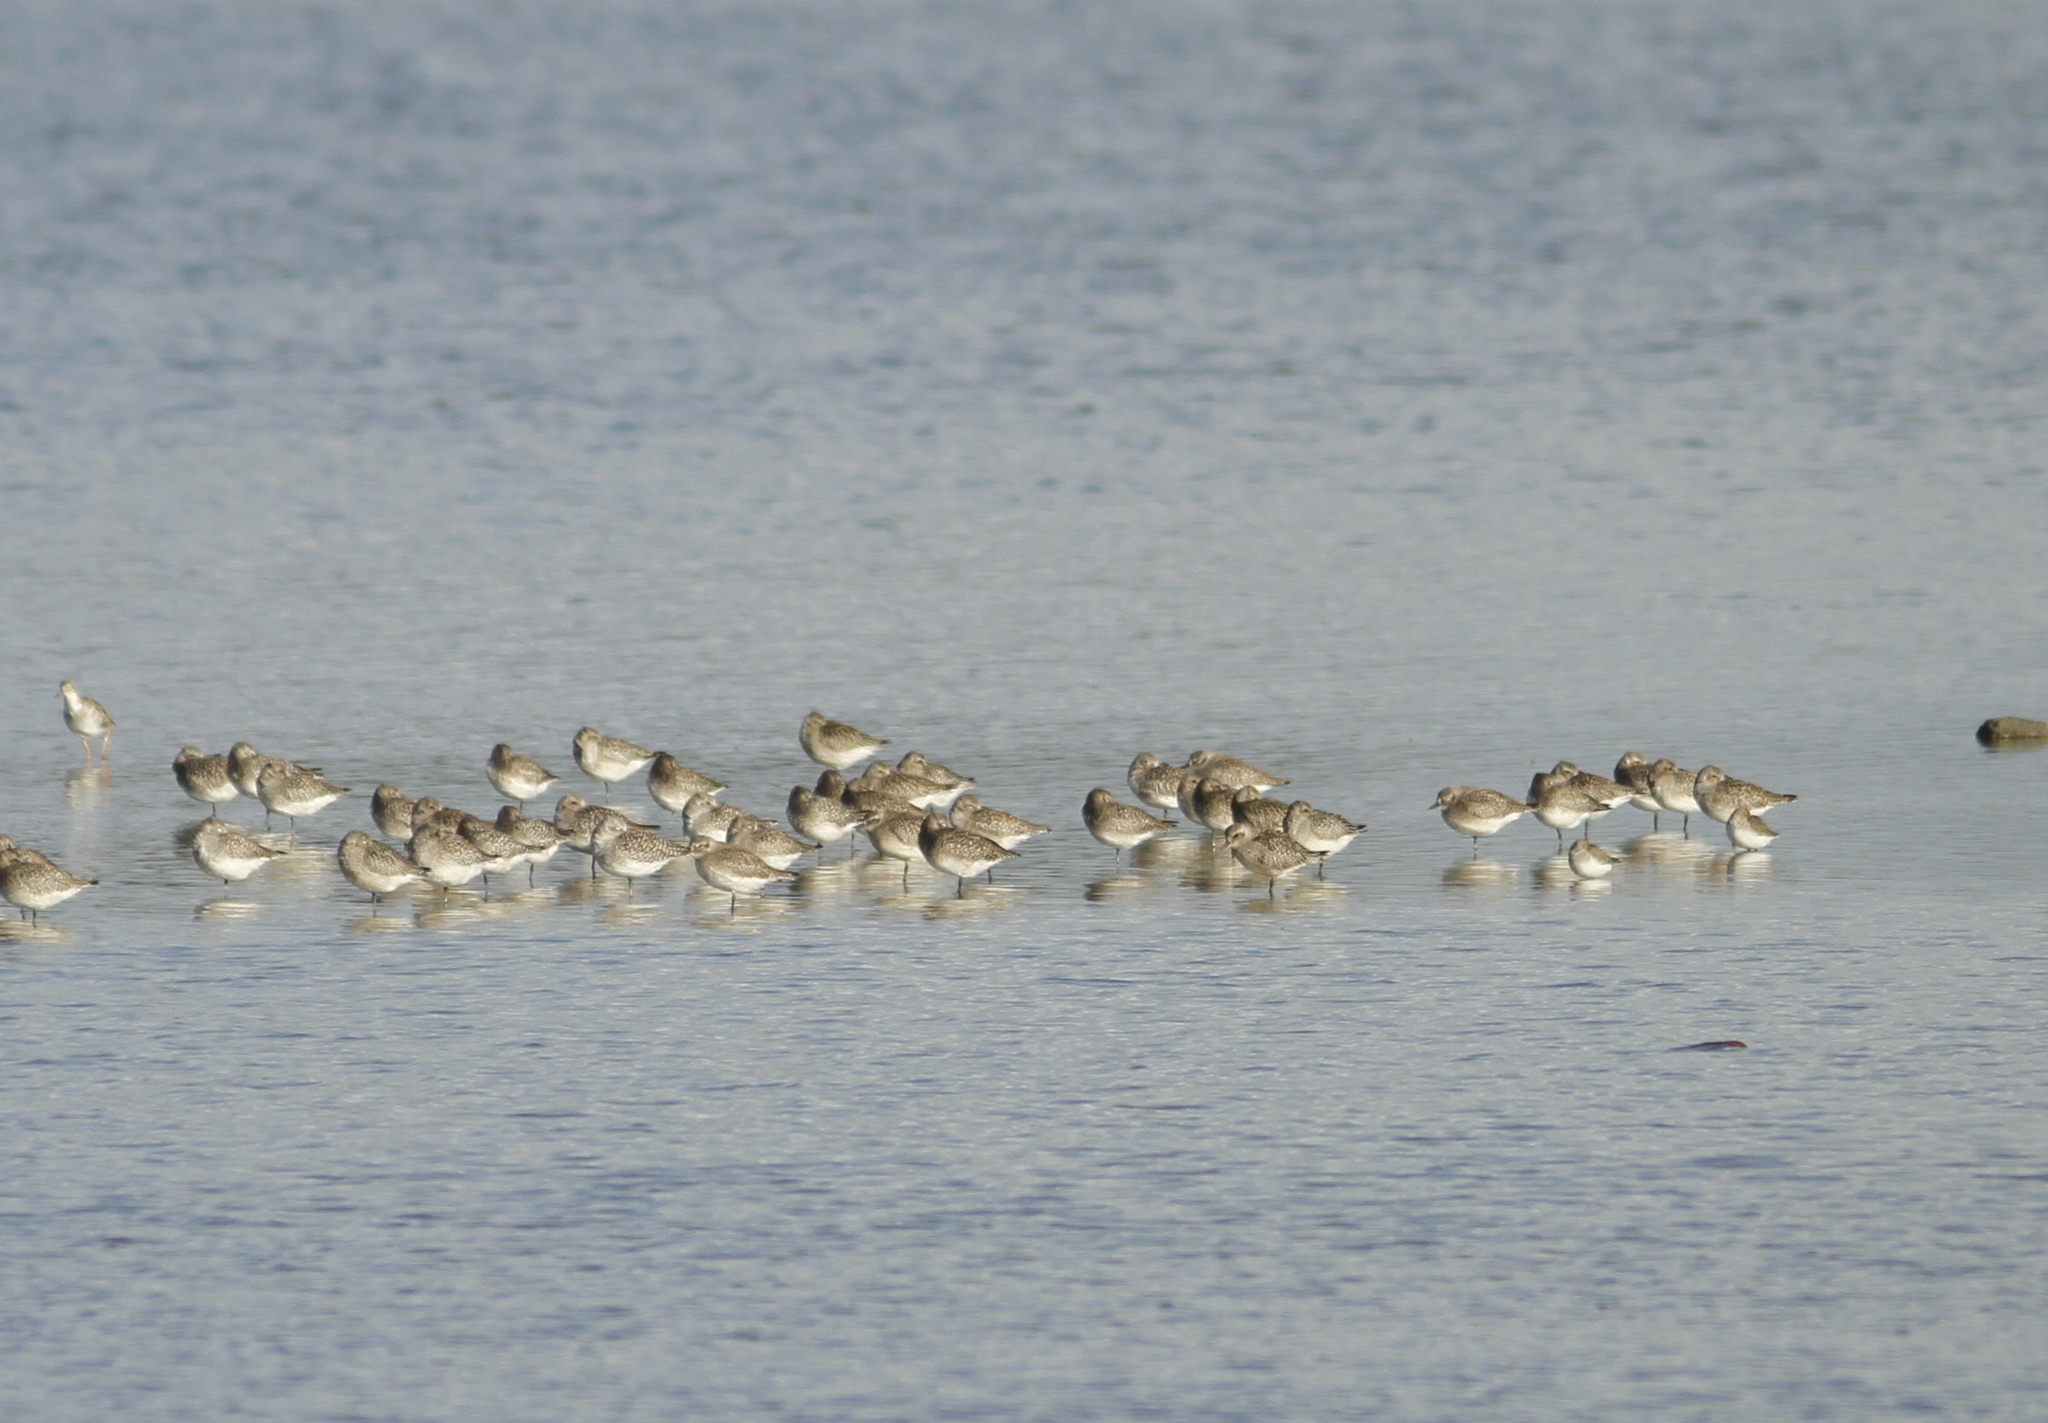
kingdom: Animalia
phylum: Chordata
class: Aves
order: Charadriiformes
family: Charadriidae
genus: Pluvialis
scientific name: Pluvialis squatarola
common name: Grey plover
